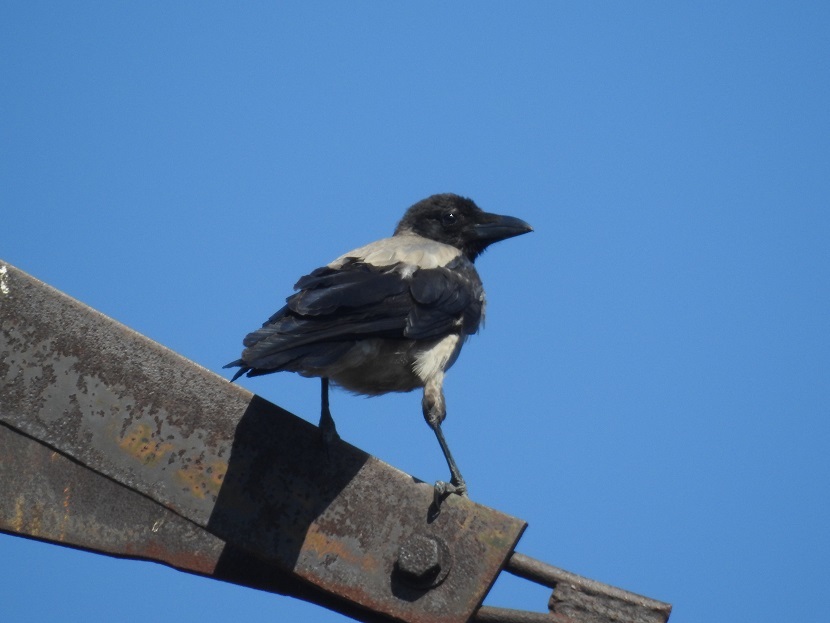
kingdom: Animalia
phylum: Chordata
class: Aves
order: Passeriformes
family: Corvidae
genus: Corvus
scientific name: Corvus cornix
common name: Hooded crow
